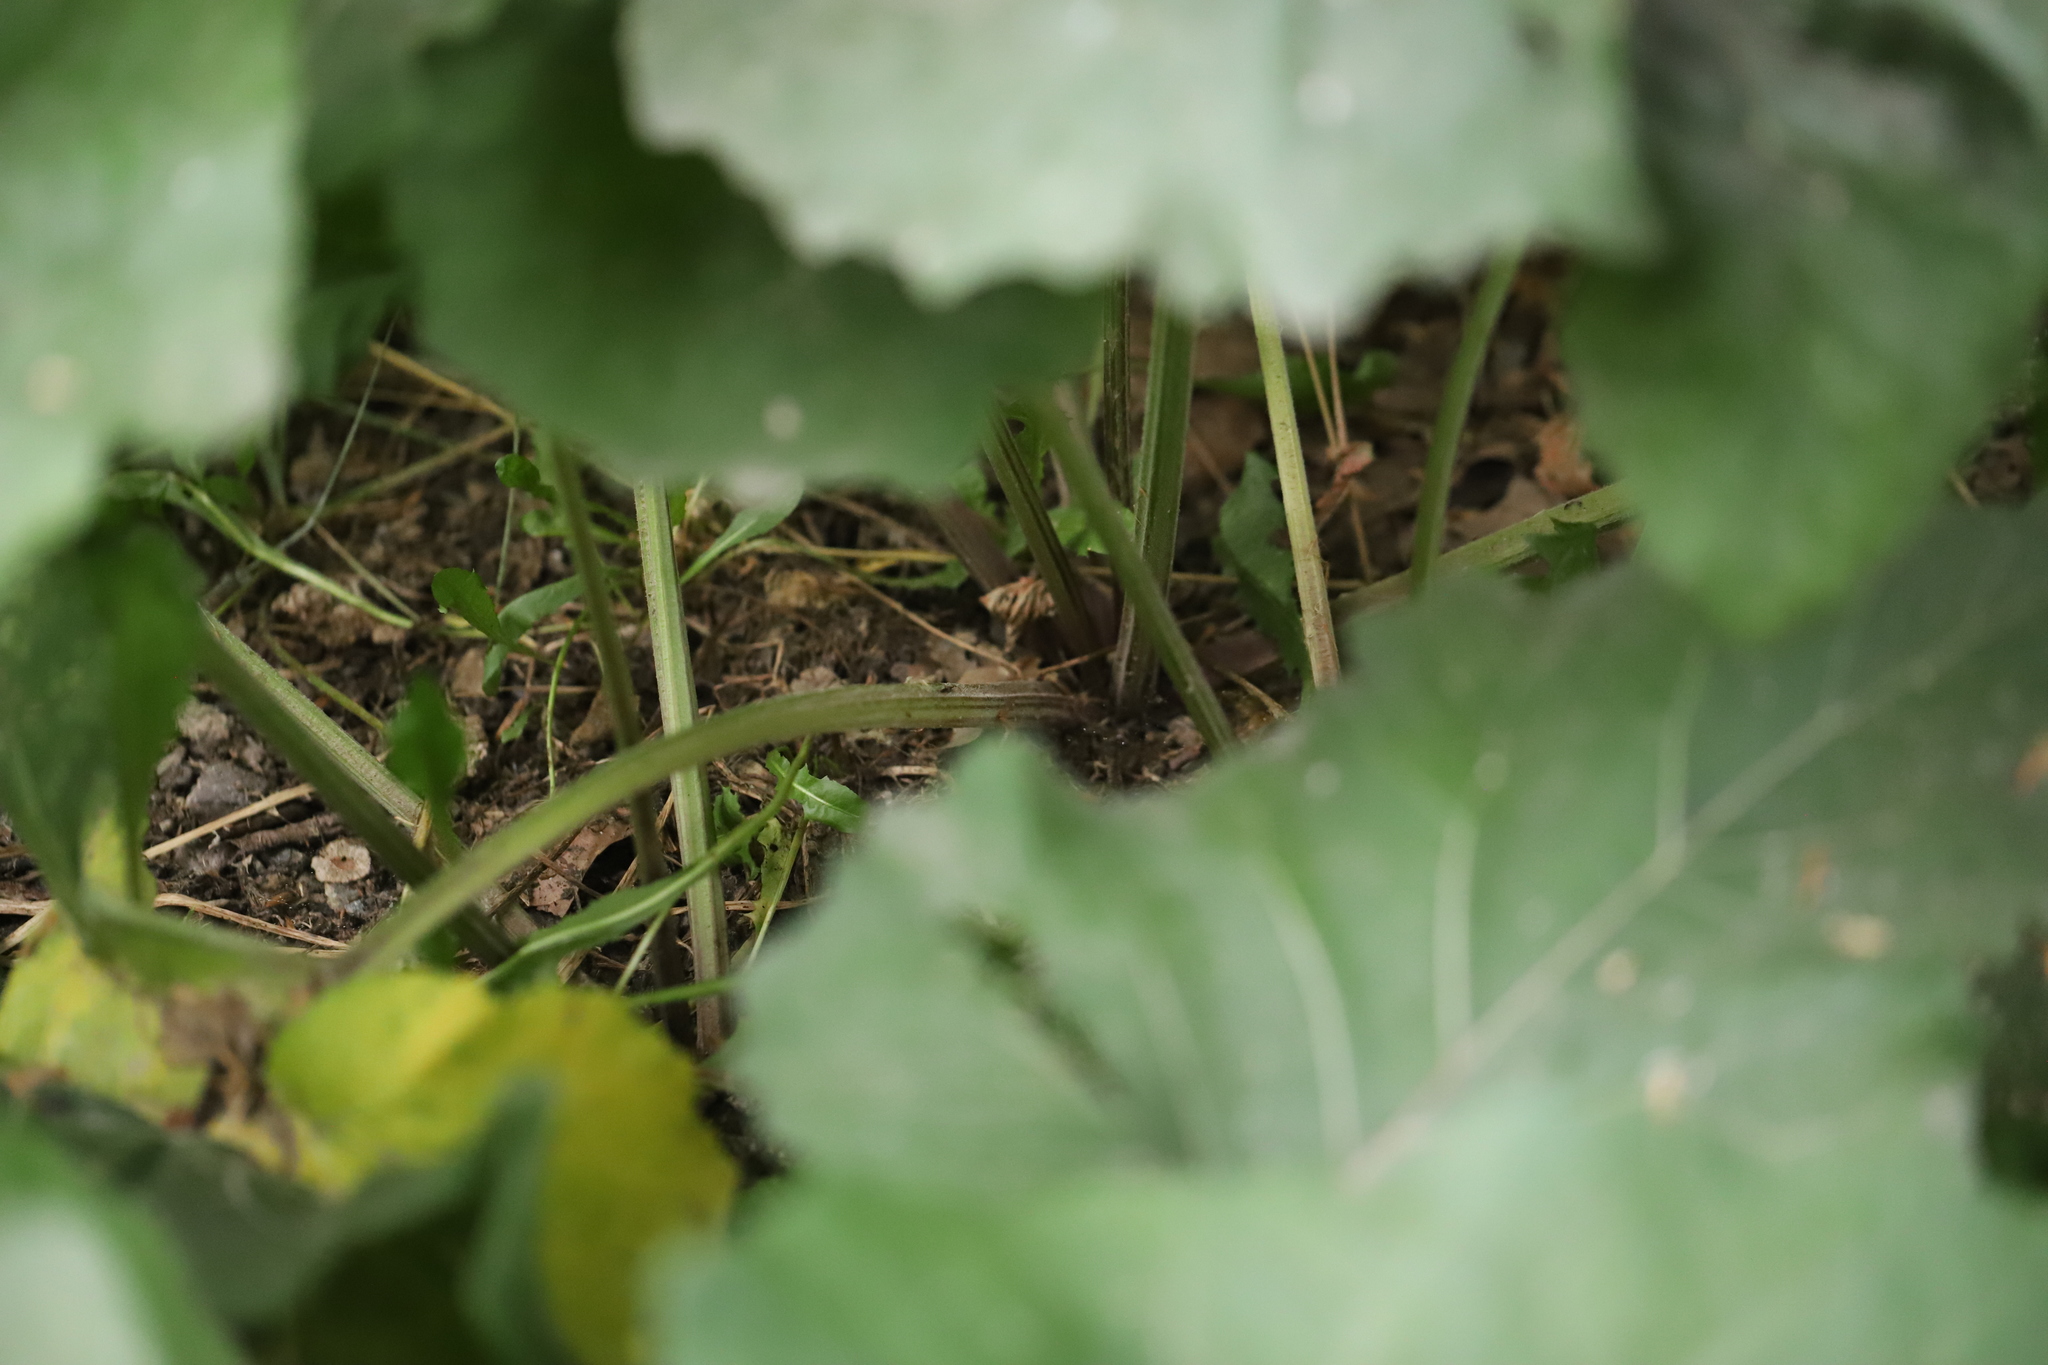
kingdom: Plantae
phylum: Tracheophyta
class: Magnoliopsida
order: Asterales
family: Asteraceae
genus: Arctium
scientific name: Arctium minus
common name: Lesser burdock
